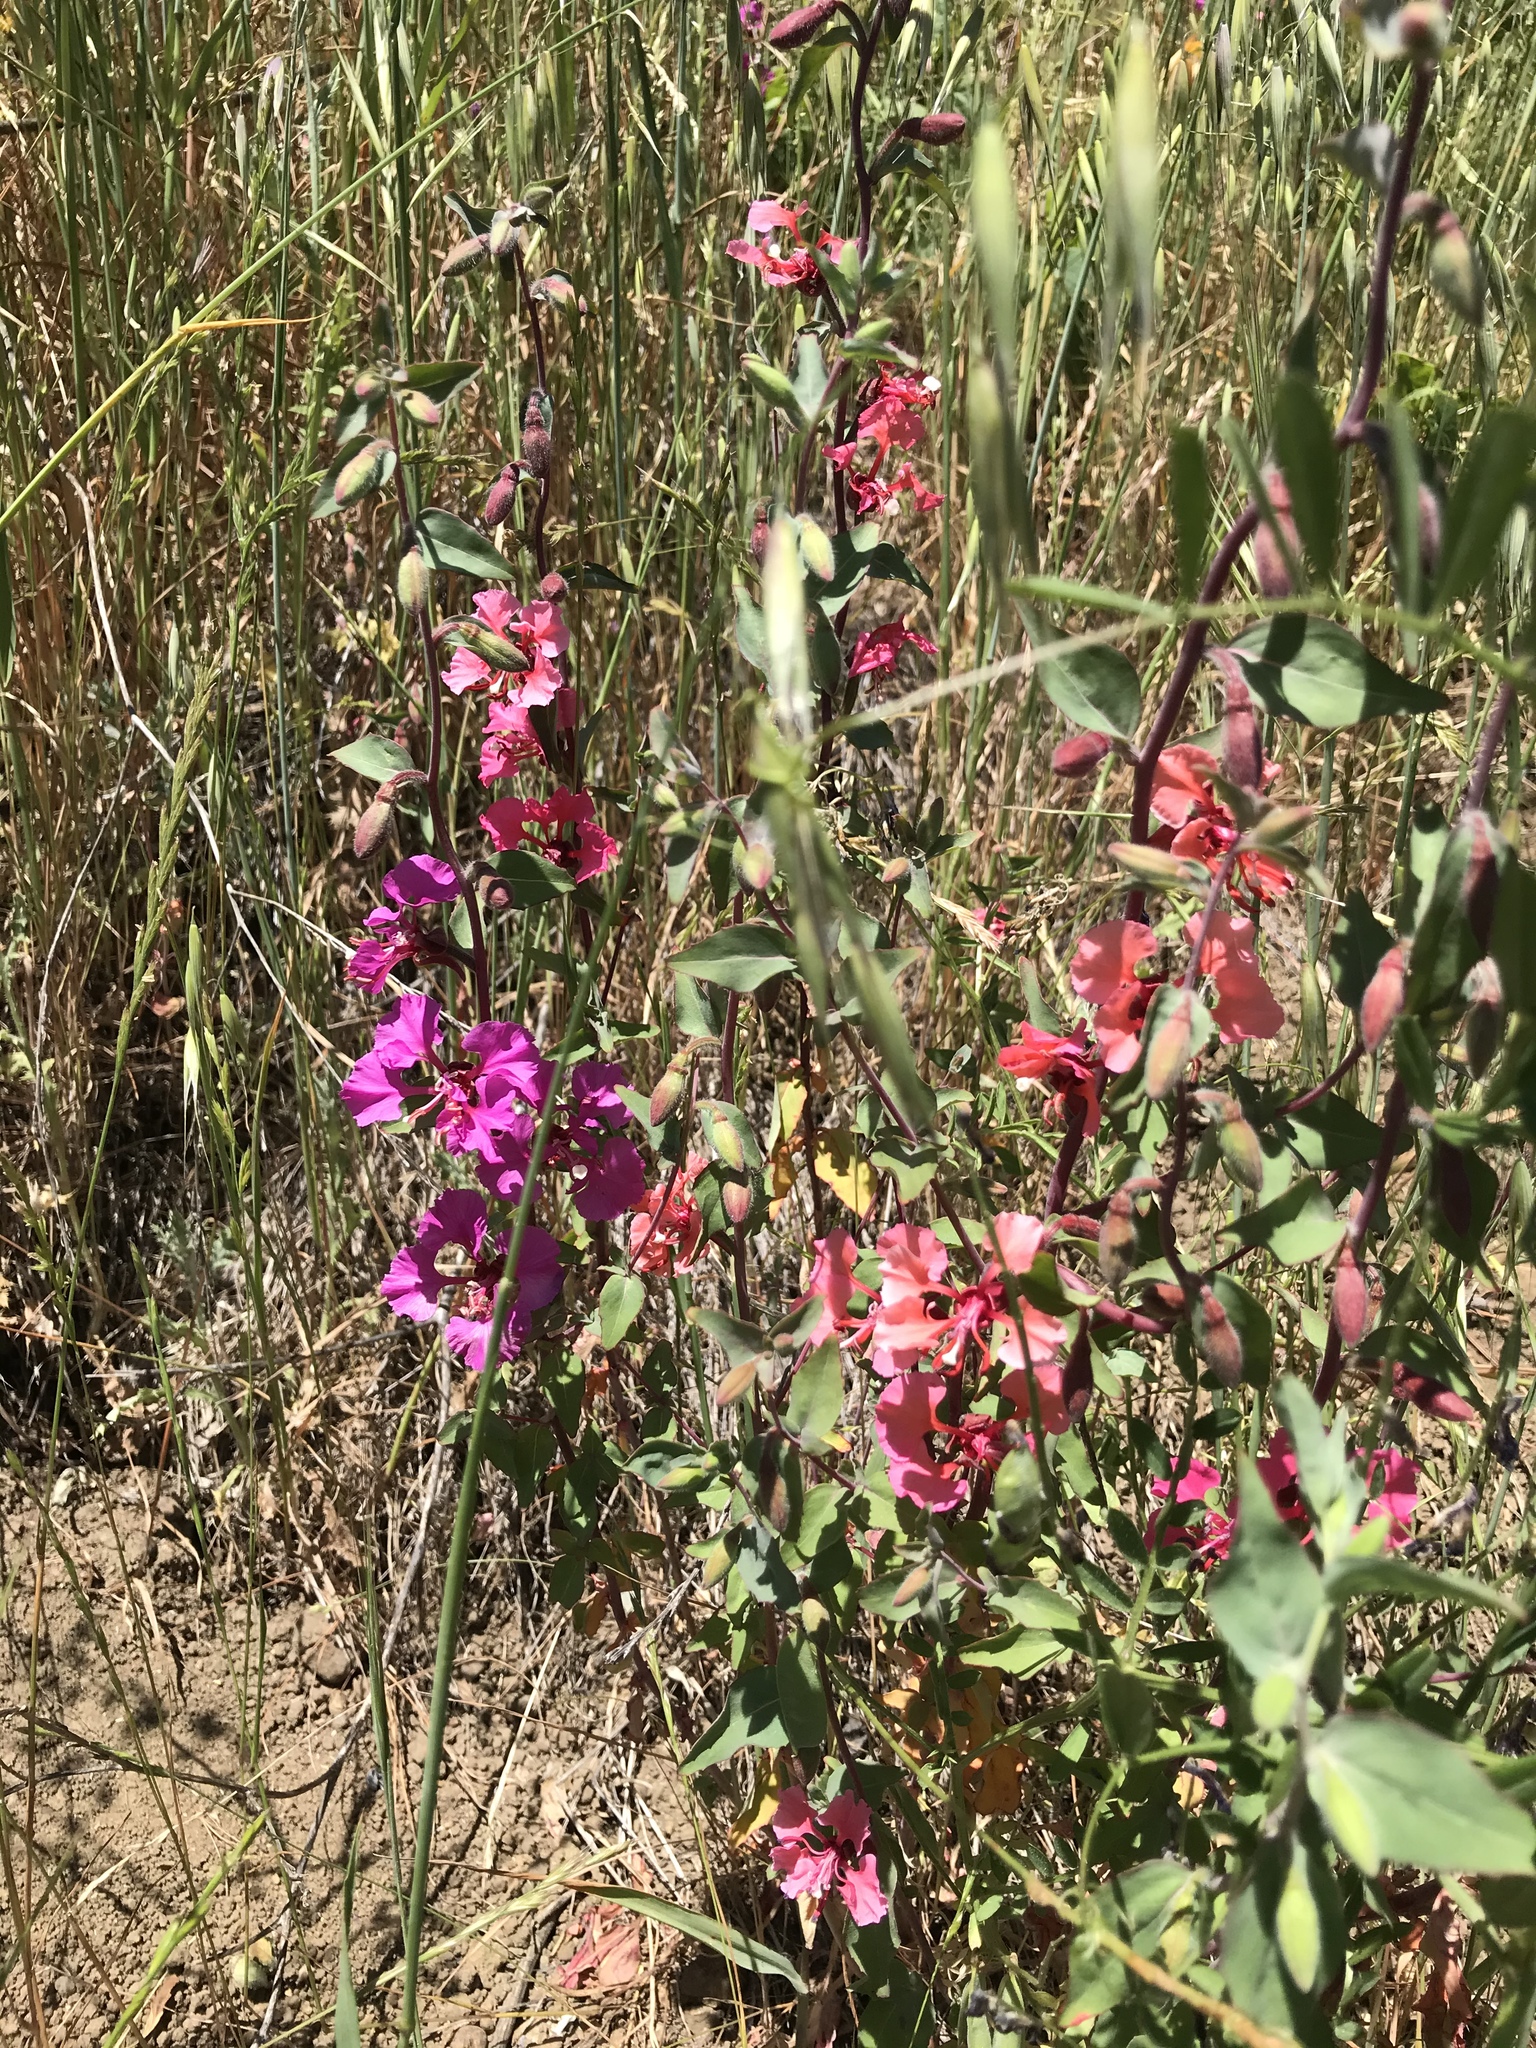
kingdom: Plantae
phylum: Tracheophyta
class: Magnoliopsida
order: Myrtales
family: Onagraceae
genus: Clarkia
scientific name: Clarkia unguiculata
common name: Clarkia
